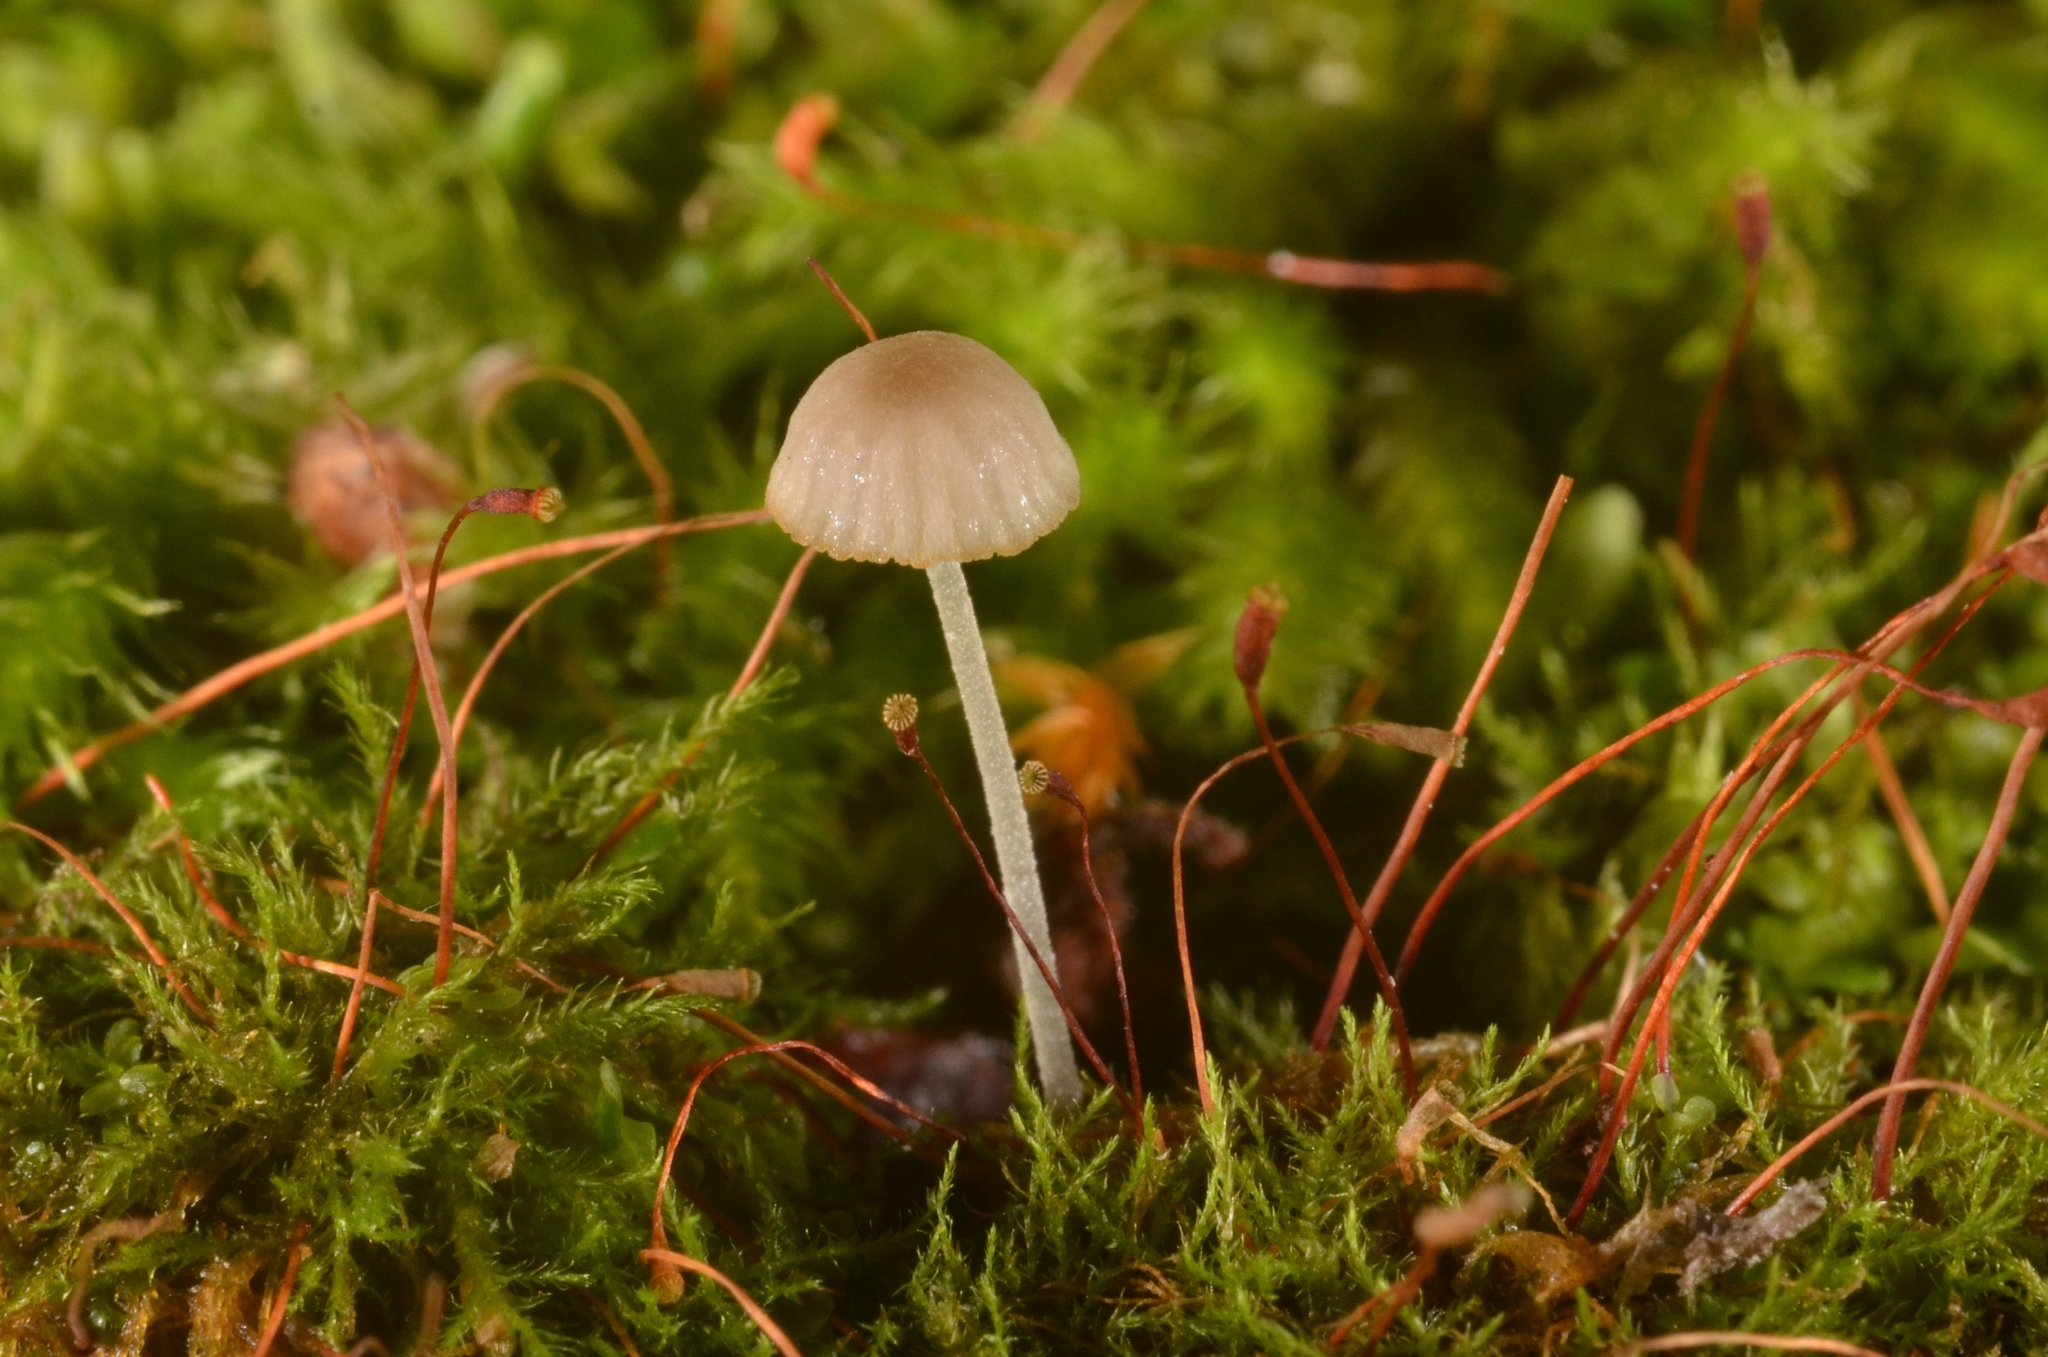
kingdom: Fungi
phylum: Basidiomycota
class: Agaricomycetes
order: Agaricales
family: Porotheleaceae
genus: Phloeomana
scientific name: Phloeomana speirea
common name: Bark bonnet
